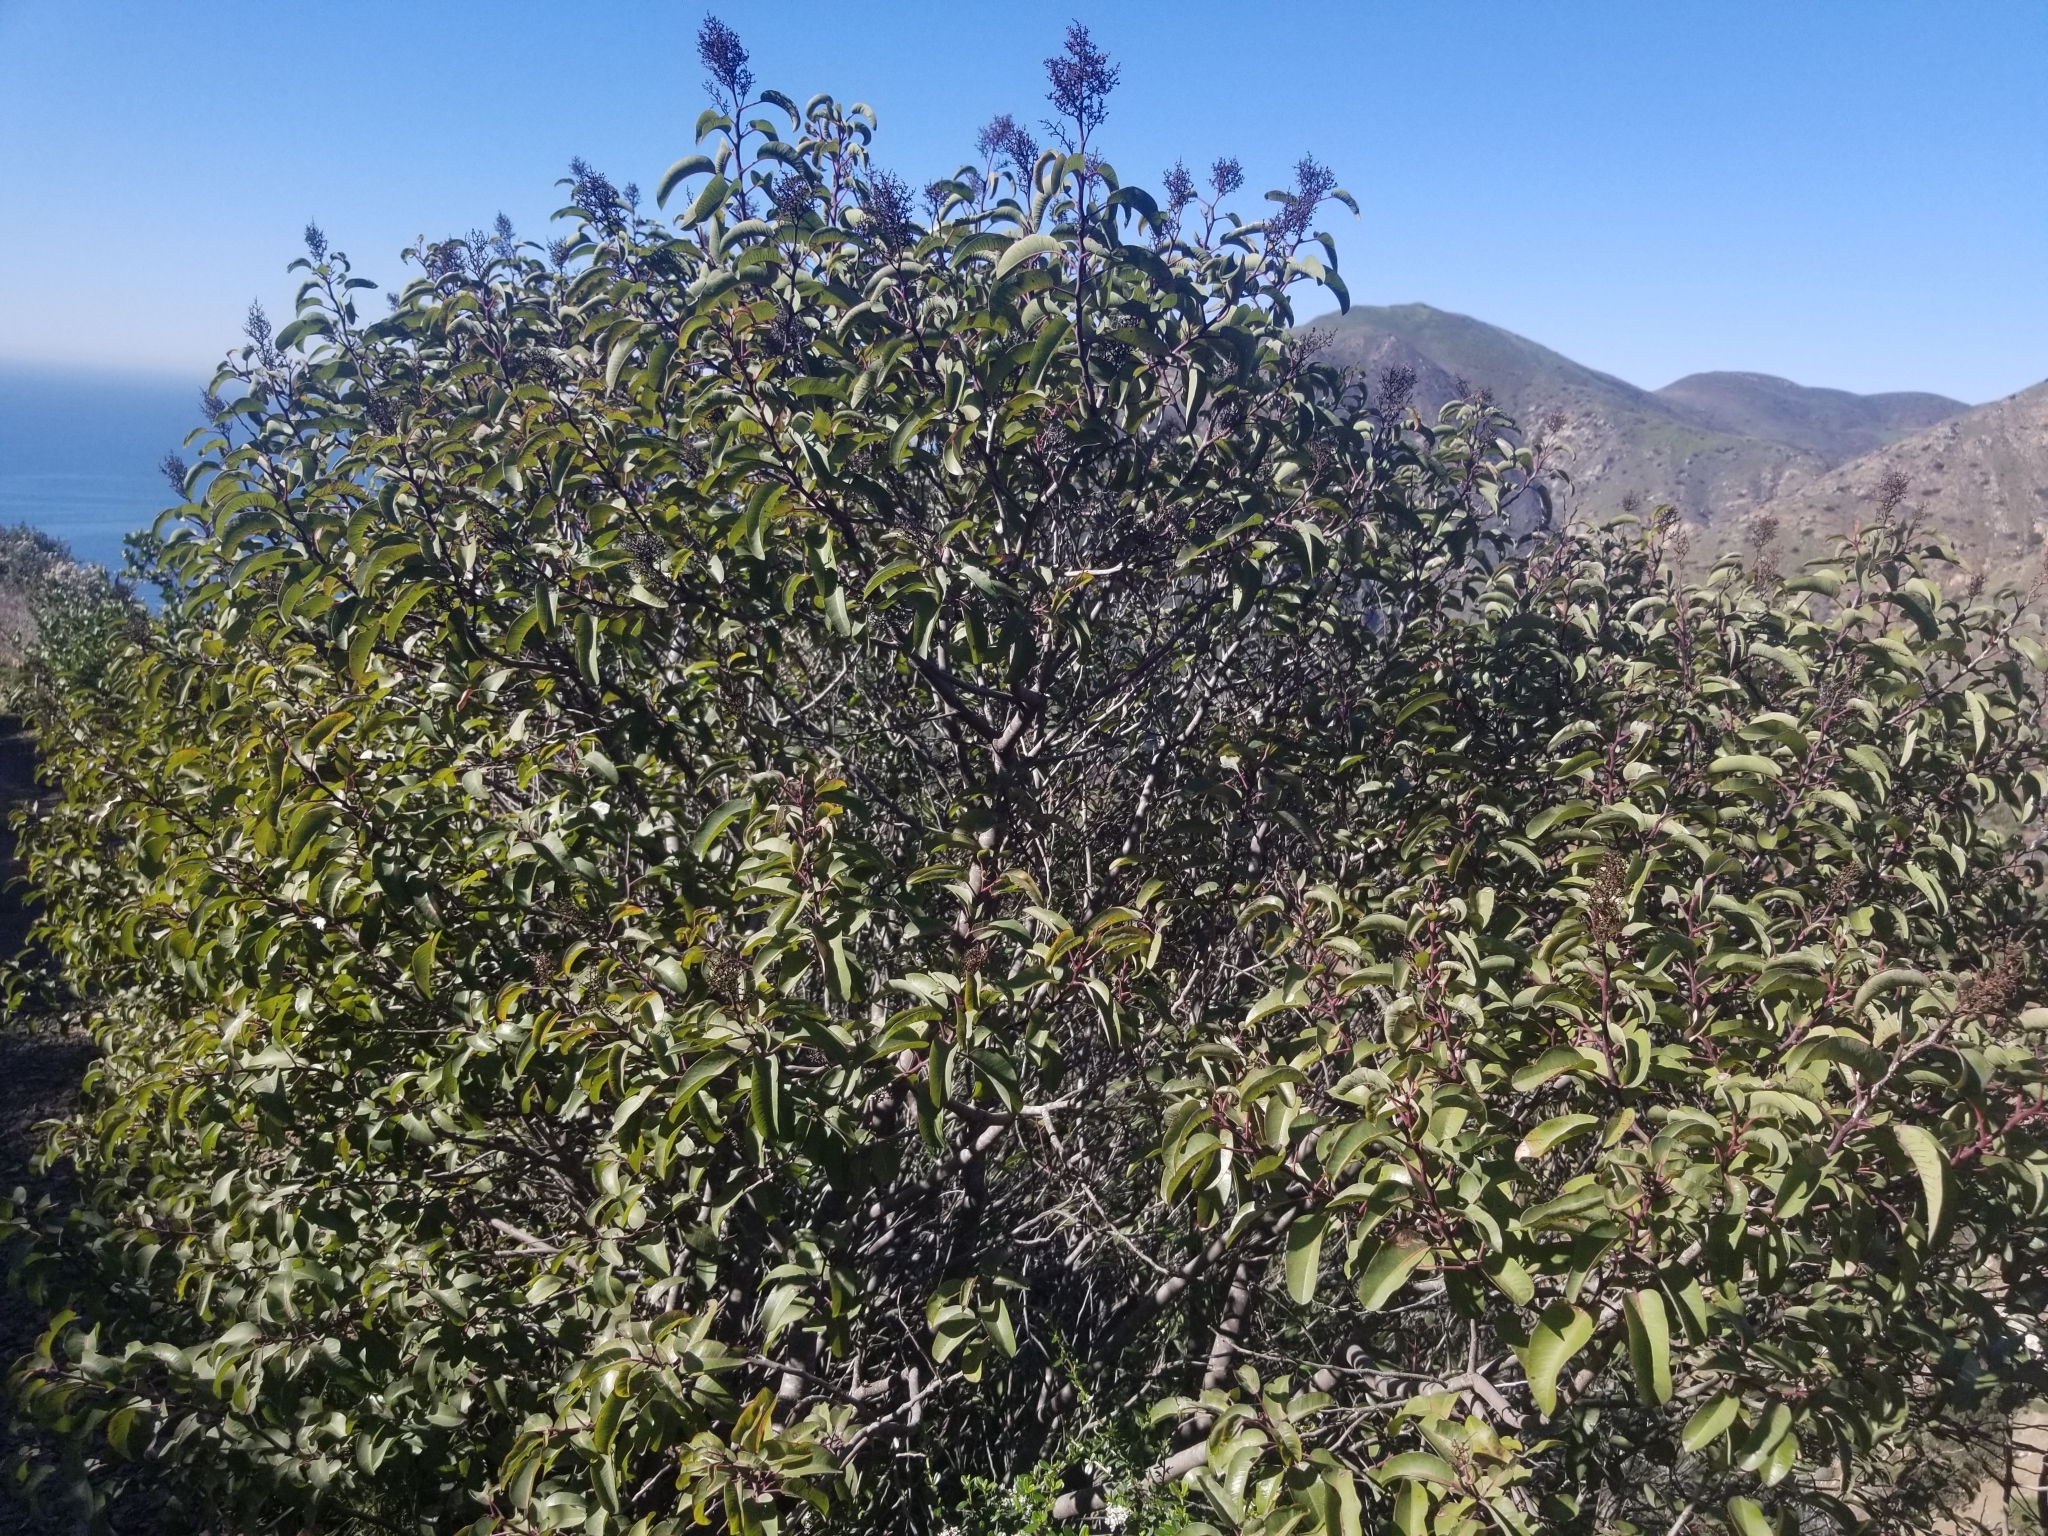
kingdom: Plantae
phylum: Tracheophyta
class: Magnoliopsida
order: Sapindales
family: Anacardiaceae
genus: Malosma
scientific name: Malosma laurina
